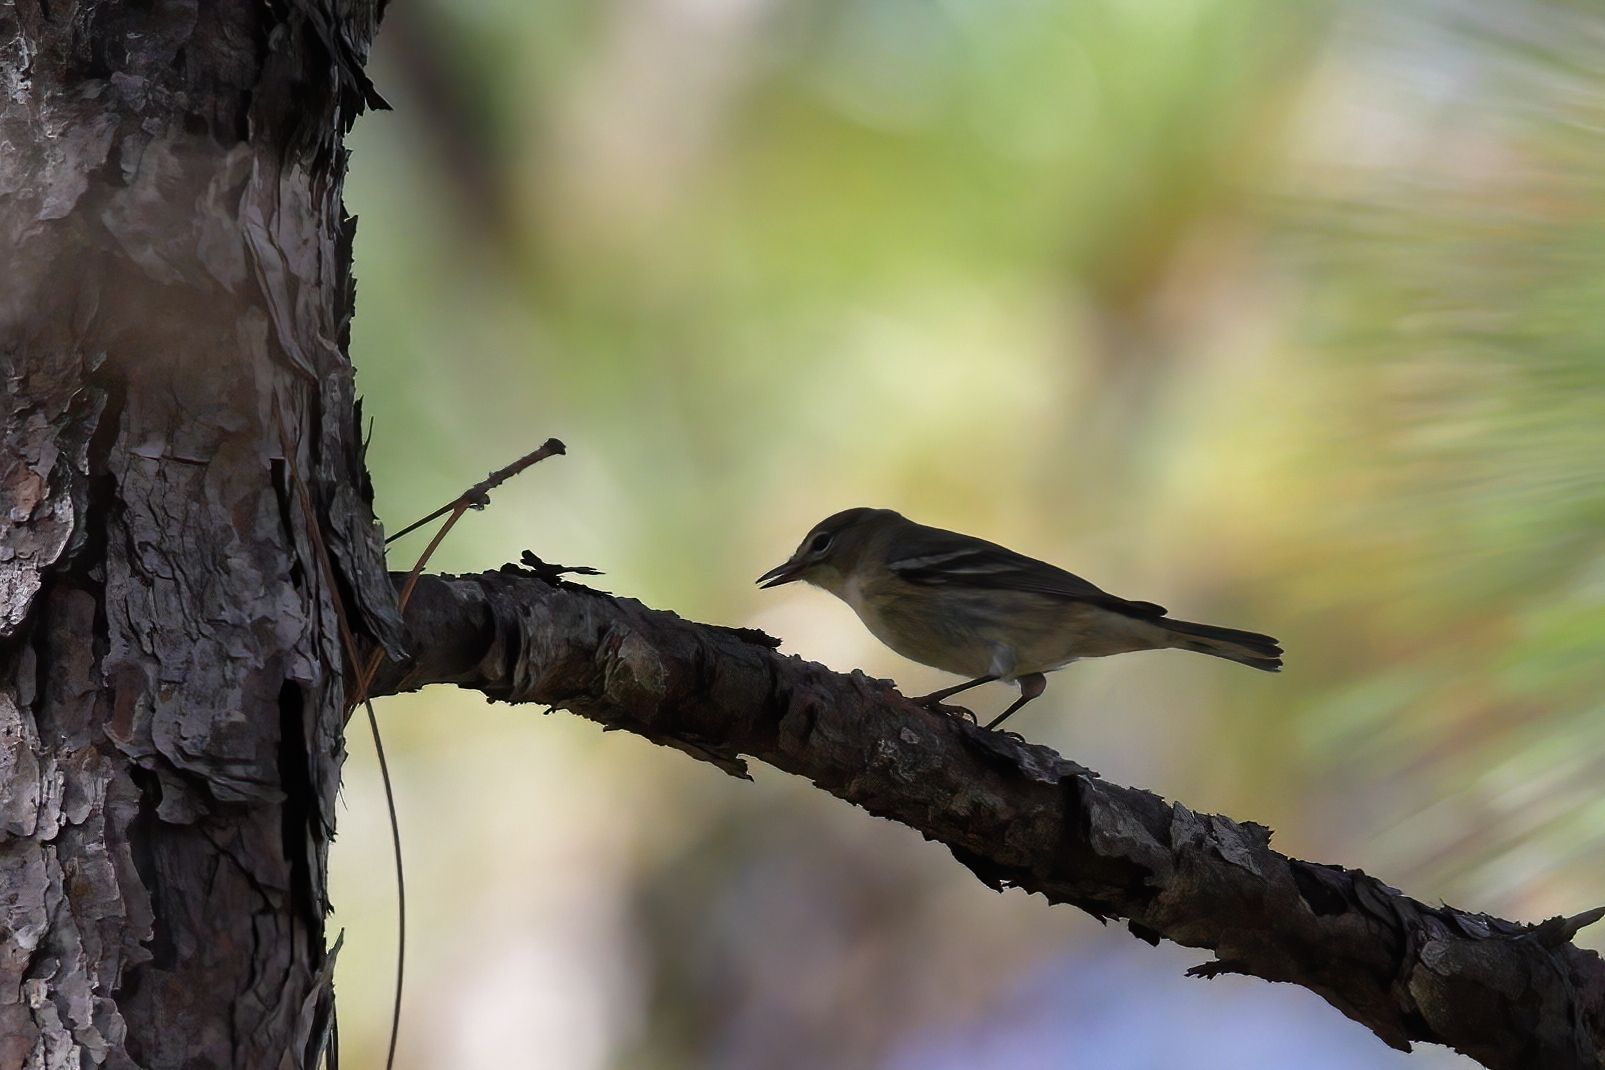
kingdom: Animalia
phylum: Chordata
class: Aves
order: Passeriformes
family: Parulidae
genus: Setophaga
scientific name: Setophaga pinus
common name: Pine warbler
